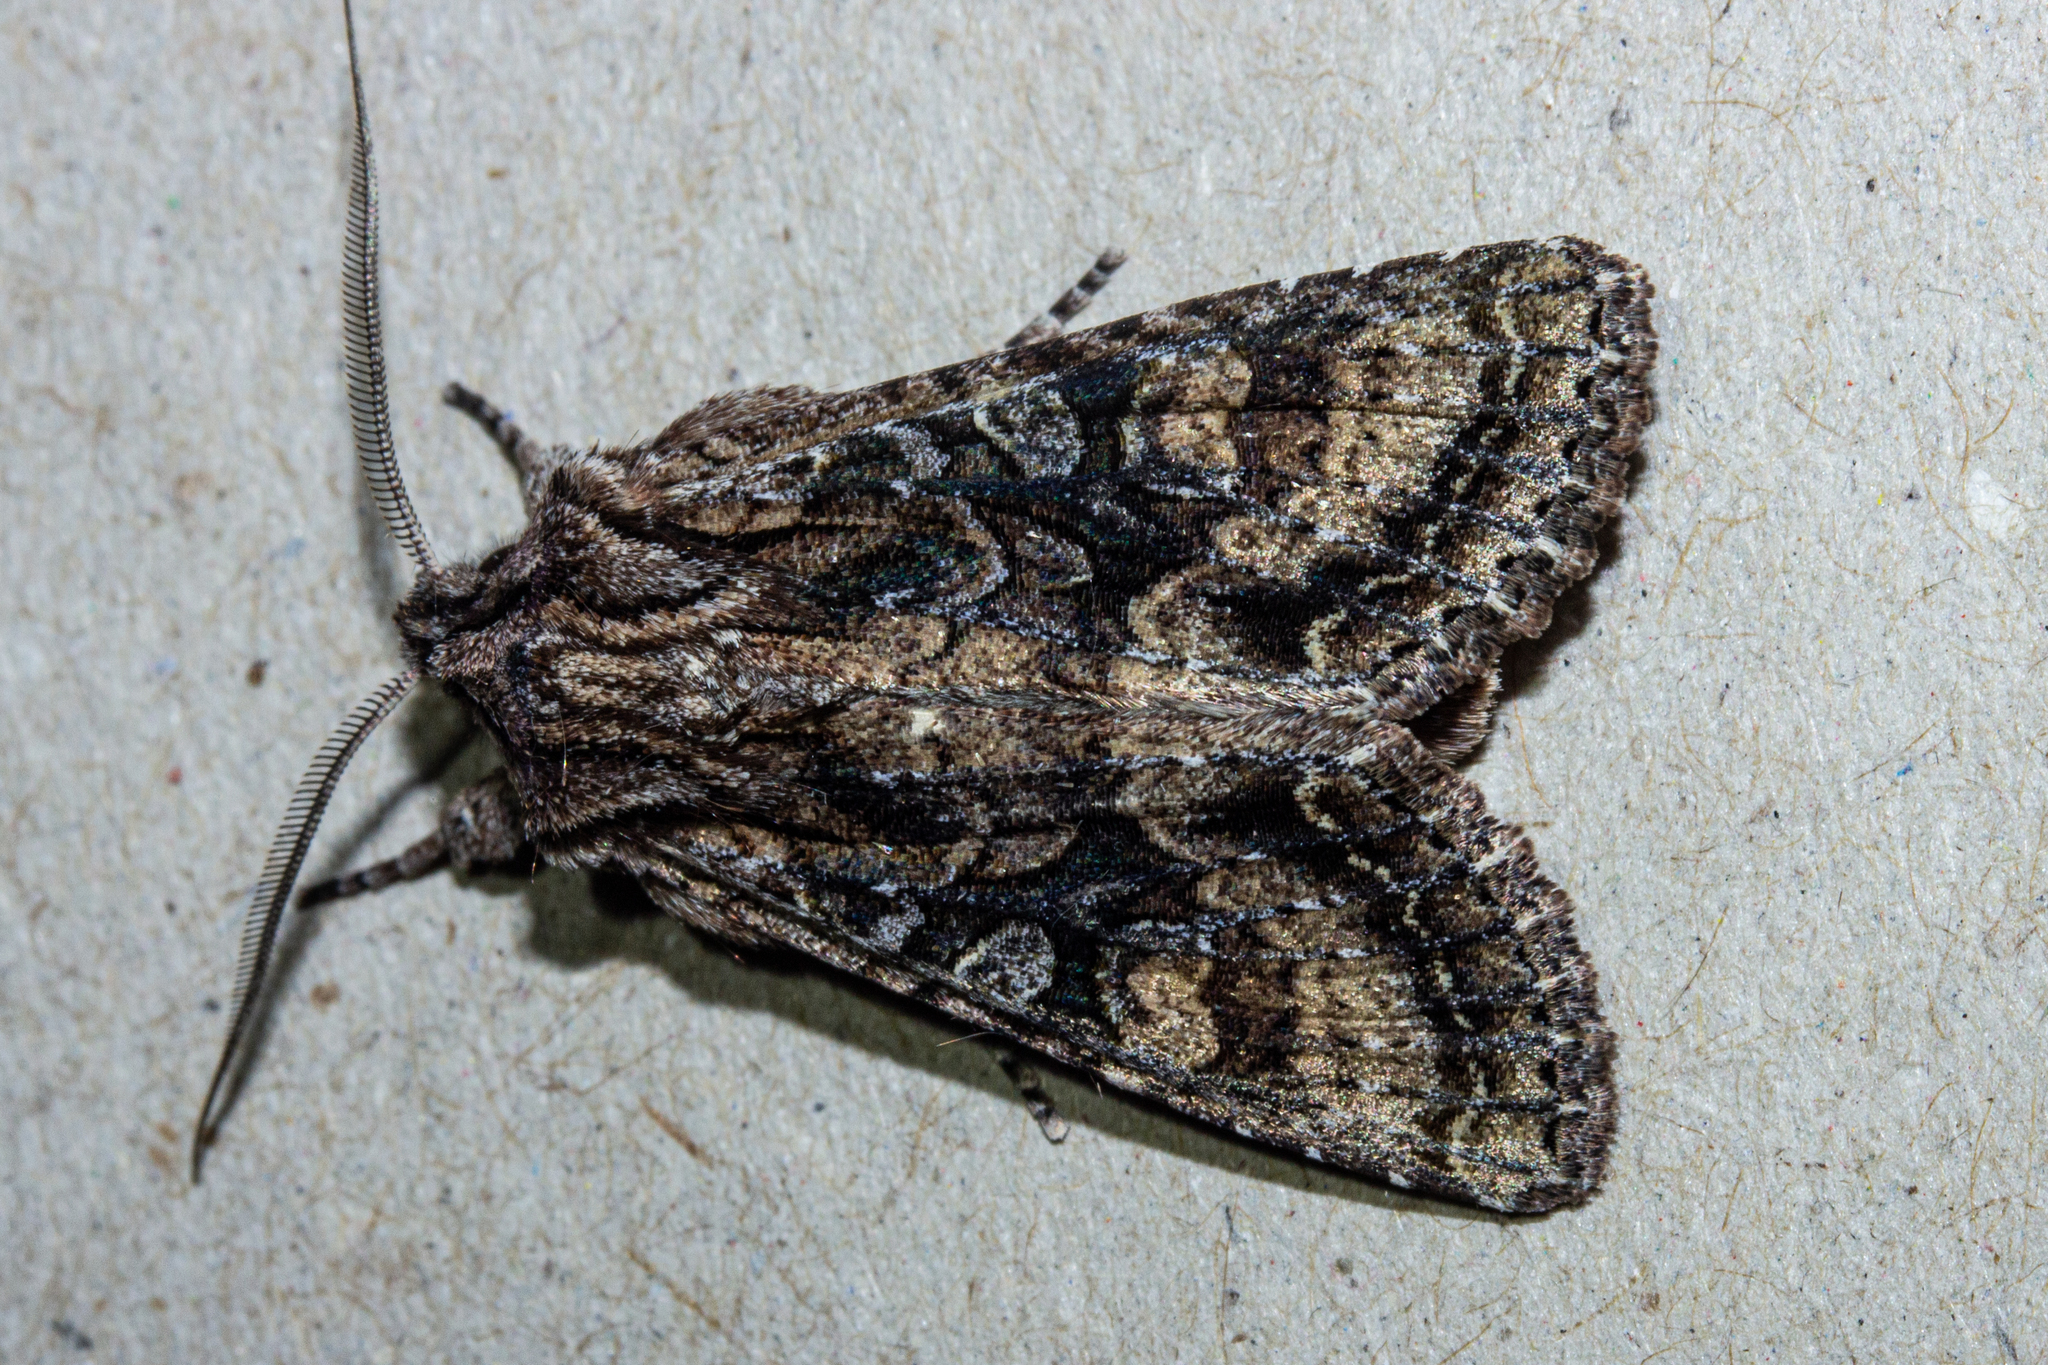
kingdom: Animalia
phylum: Arthropoda
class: Insecta
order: Lepidoptera
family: Noctuidae
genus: Ichneutica
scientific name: Ichneutica mutans
